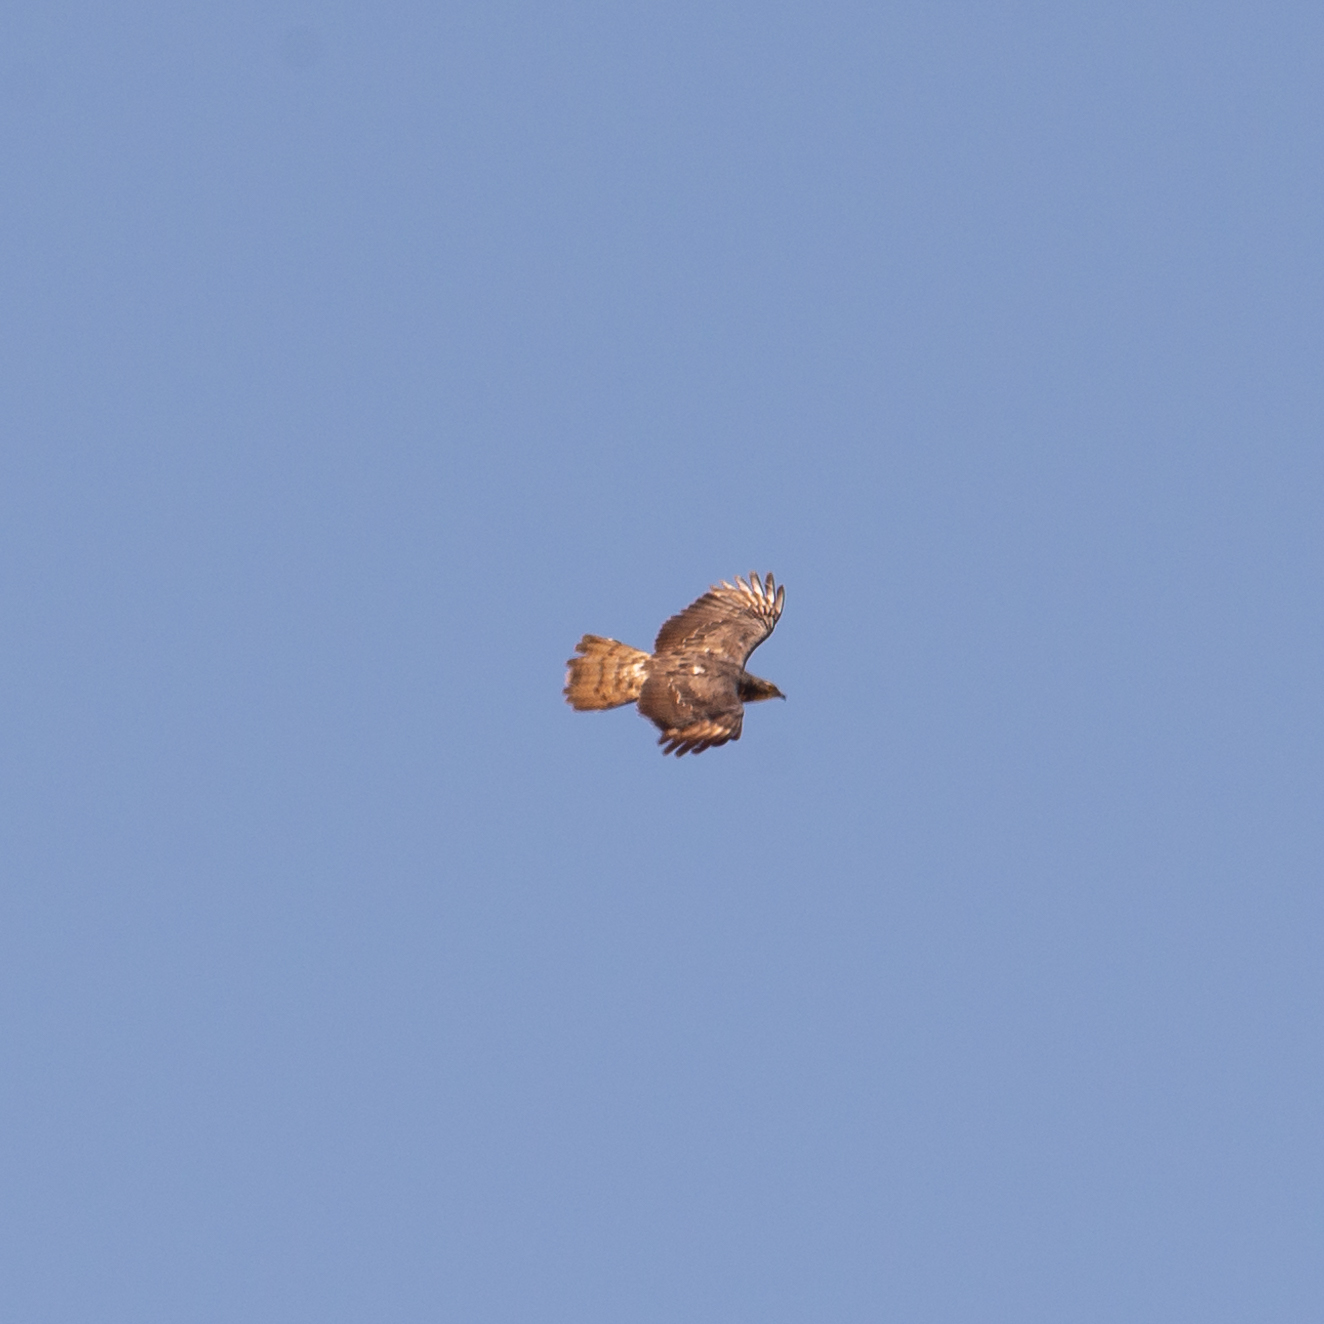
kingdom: Animalia
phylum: Chordata
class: Aves
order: Accipitriformes
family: Accipitridae
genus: Pernis
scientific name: Pernis apivorus
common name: European honey buzzard
